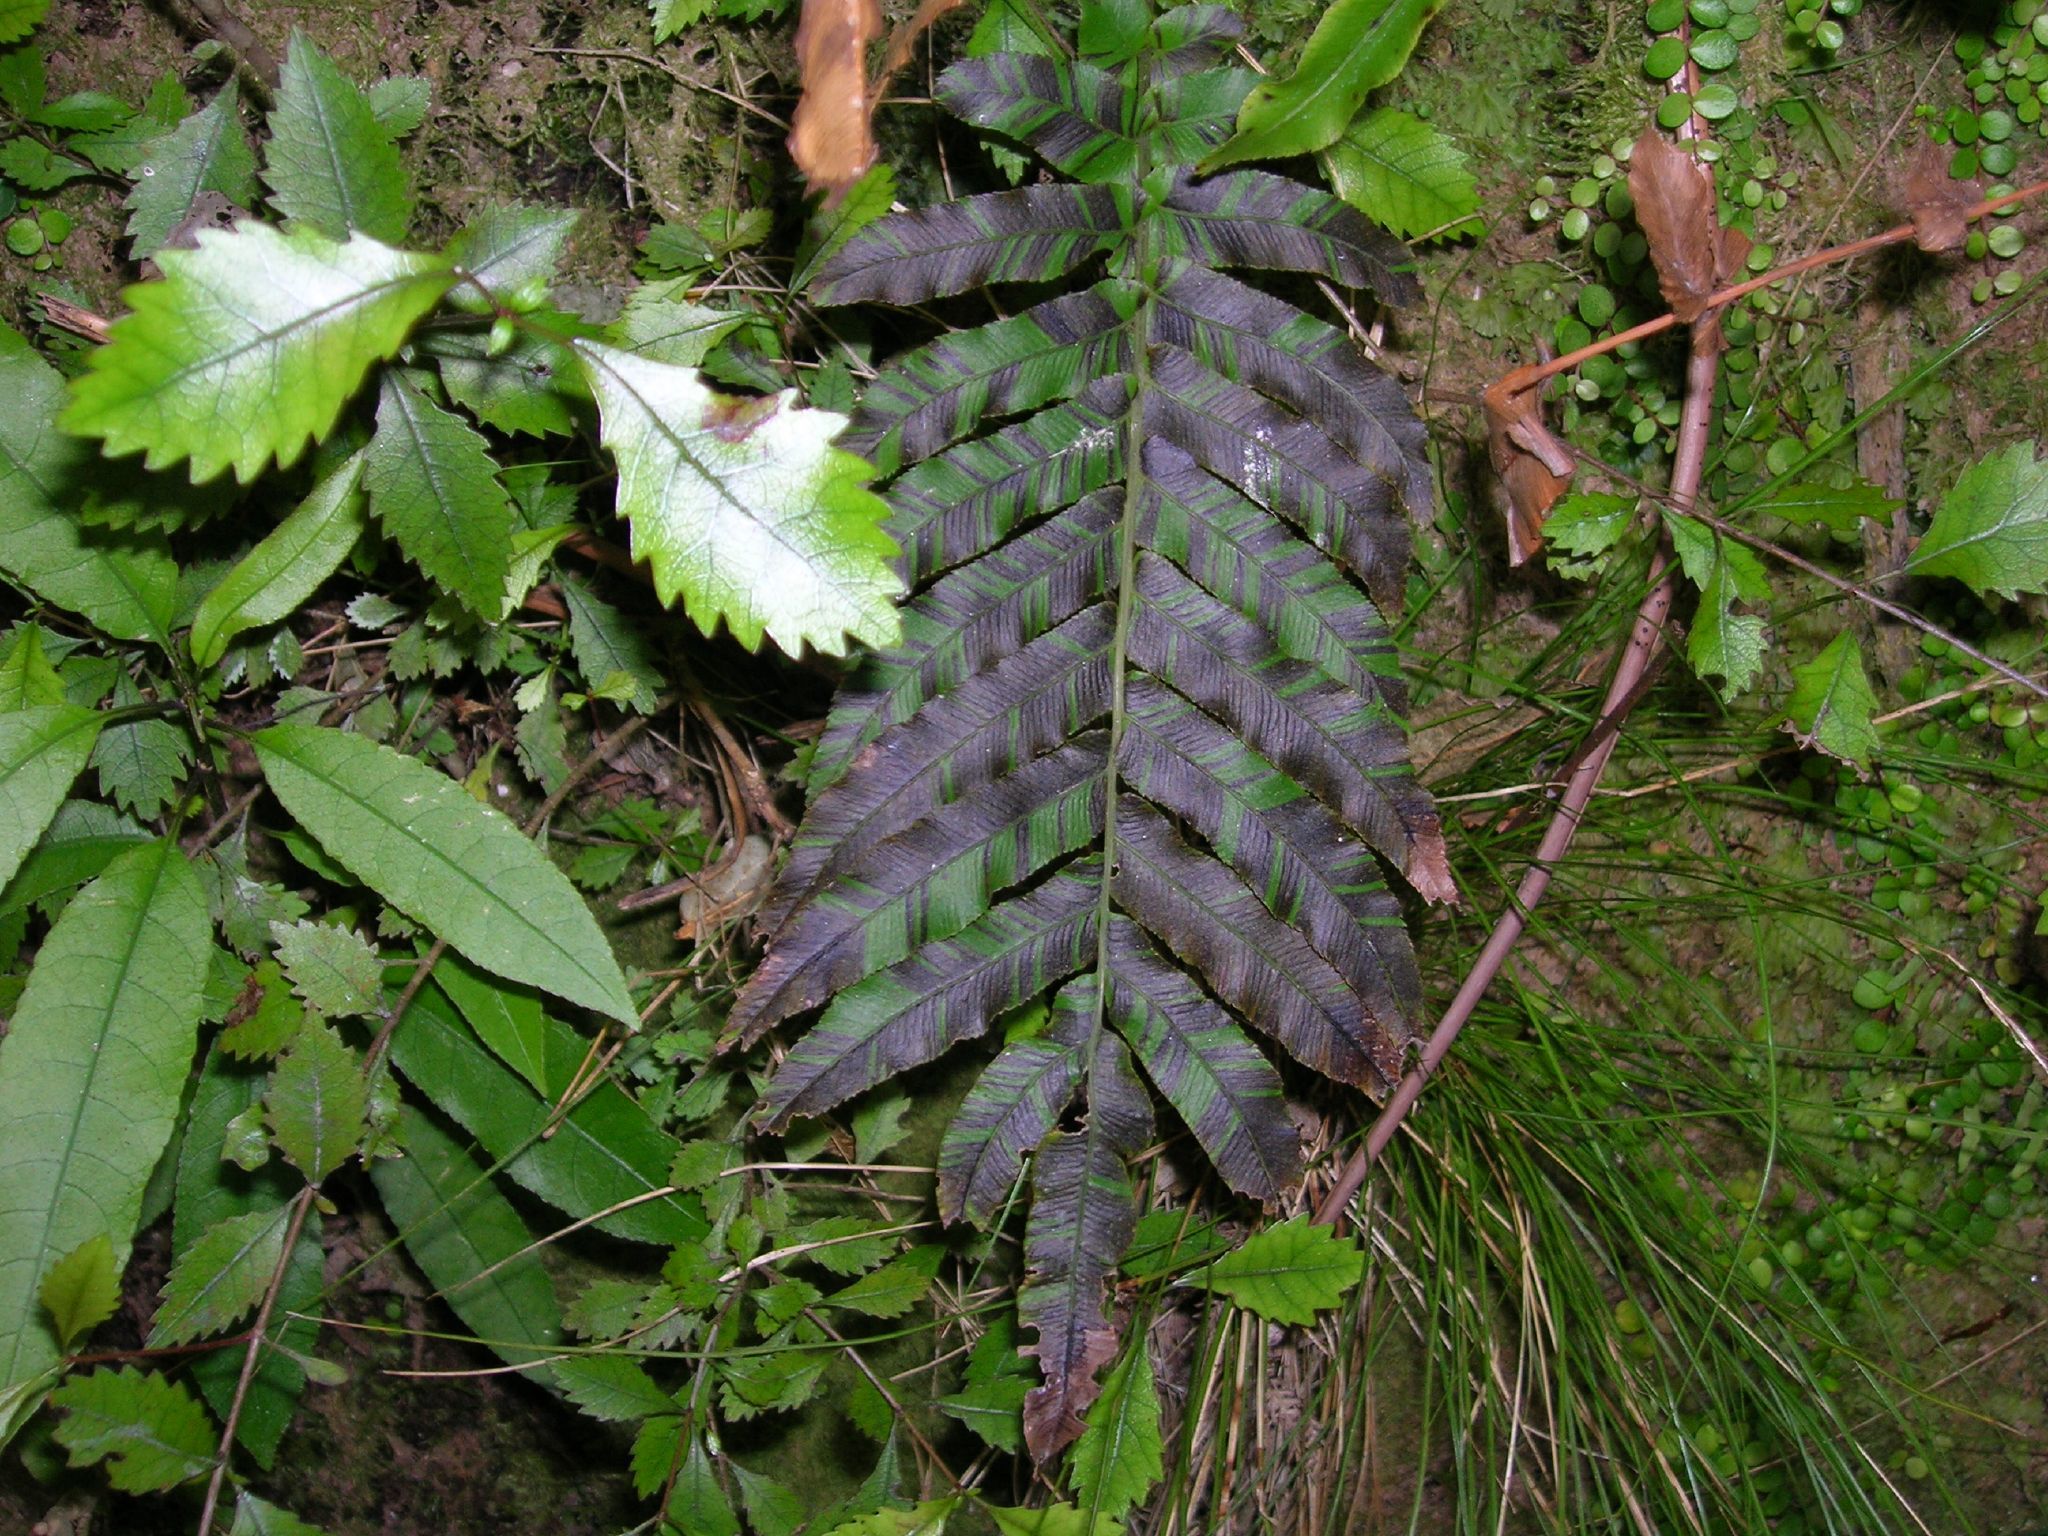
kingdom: Plantae
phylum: Tracheophyta
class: Polypodiopsida
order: Polypodiales
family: Blechnaceae
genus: Parablechnum
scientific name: Parablechnum novae-zelandiae
